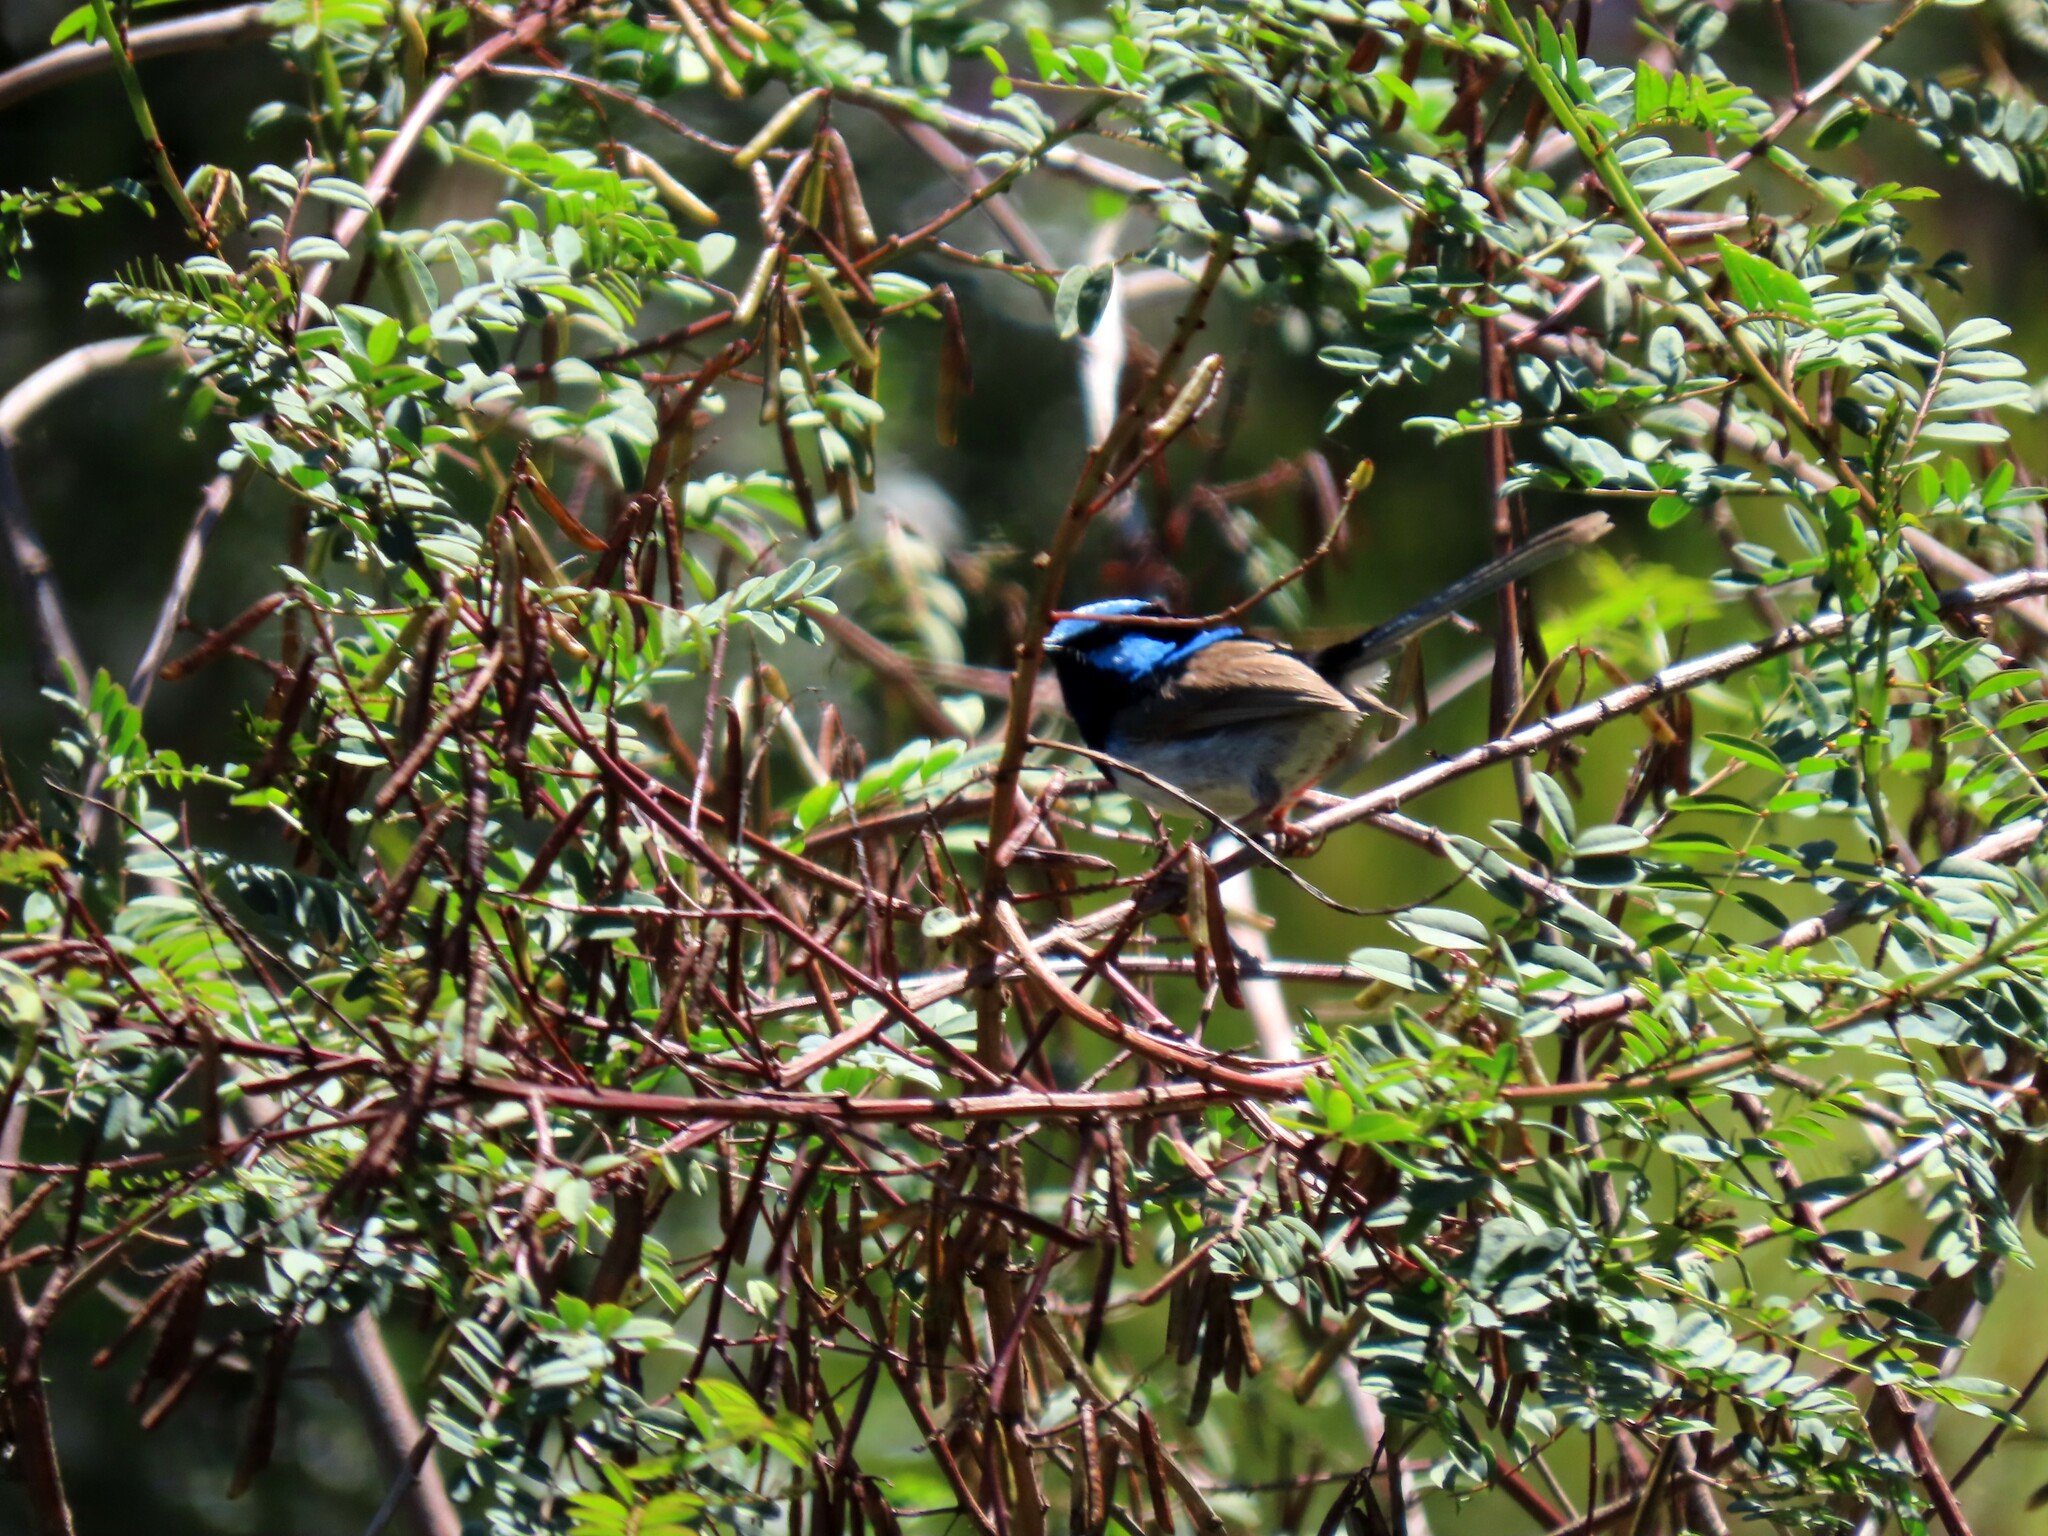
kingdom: Animalia
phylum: Chordata
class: Aves
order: Passeriformes
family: Maluridae
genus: Malurus
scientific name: Malurus cyaneus
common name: Superb fairywren
